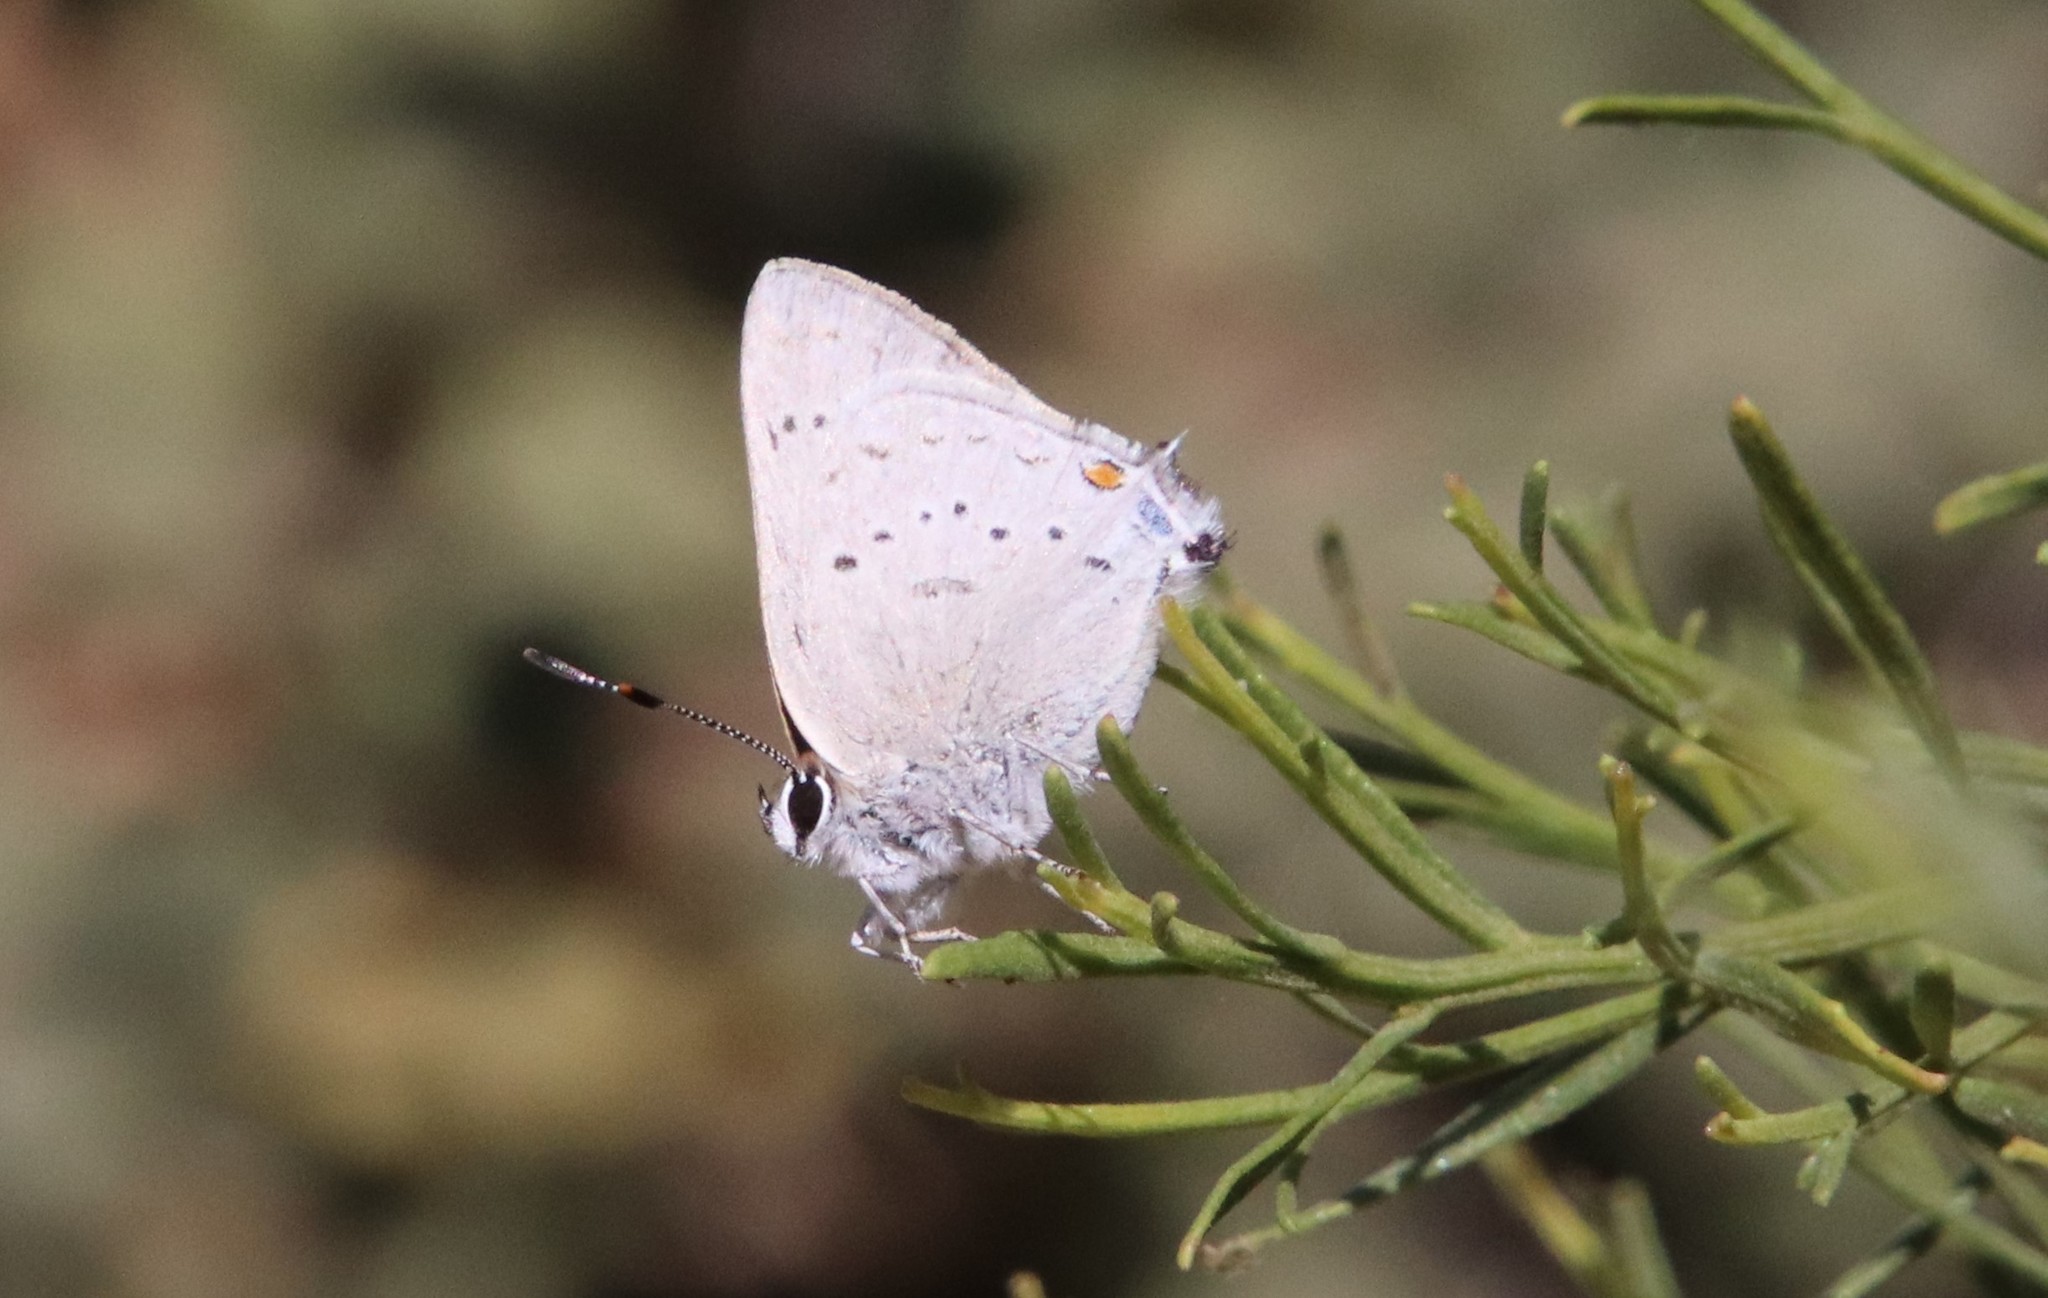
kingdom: Animalia
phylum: Arthropoda
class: Insecta
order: Lepidoptera
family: Lycaenidae
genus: Strymon
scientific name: Strymon sylvinus
